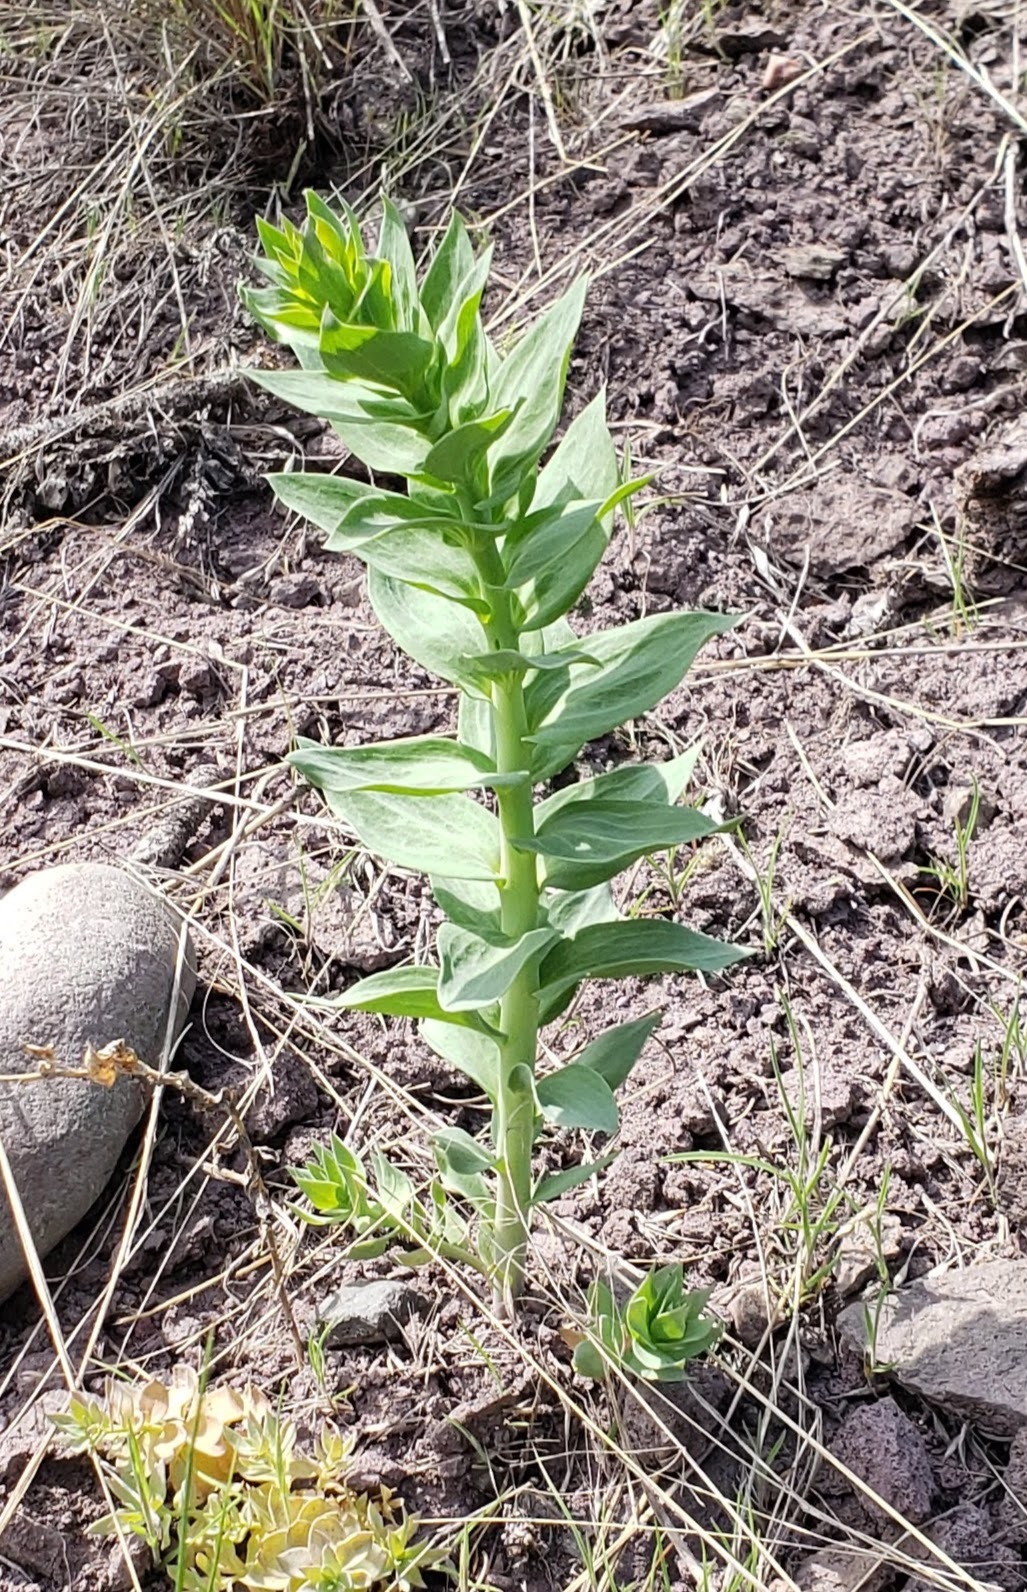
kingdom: Plantae
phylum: Tracheophyta
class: Magnoliopsida
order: Lamiales
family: Plantaginaceae
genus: Linaria
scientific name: Linaria dalmatica
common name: Dalmatian toadflax
